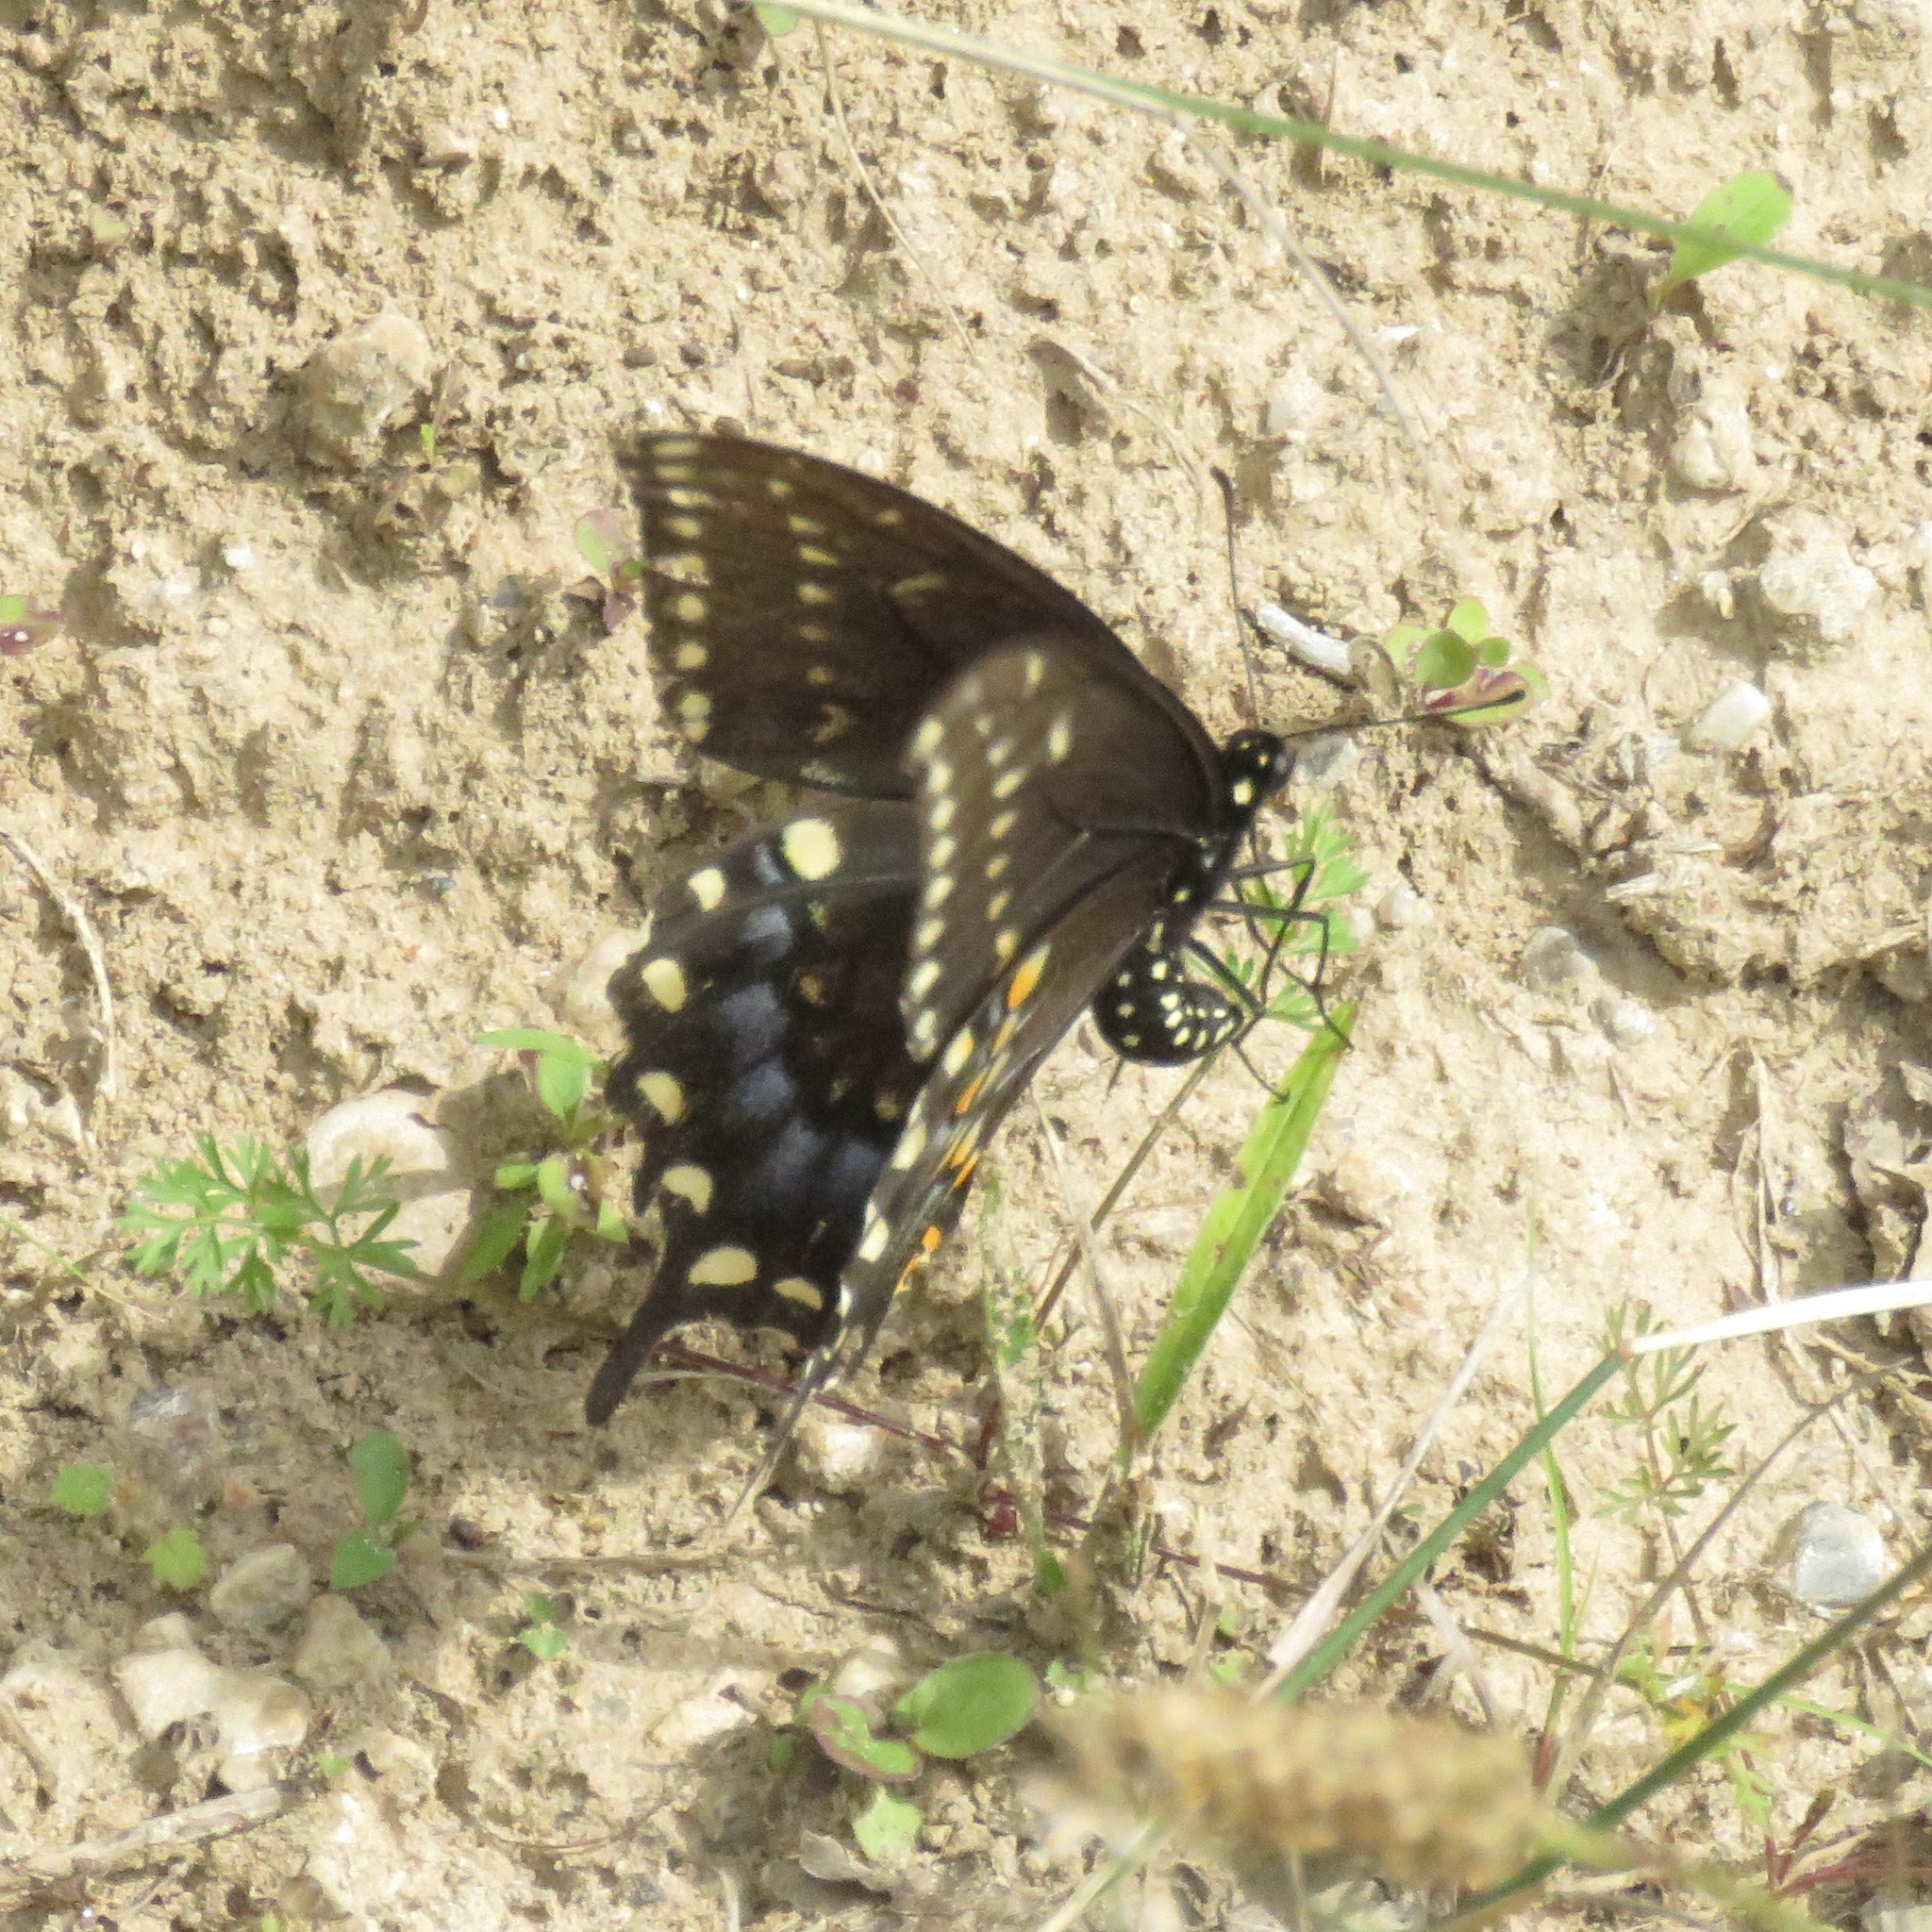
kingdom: Animalia
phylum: Arthropoda
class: Insecta
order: Lepidoptera
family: Papilionidae
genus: Papilio
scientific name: Papilio polyxenes
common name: Black swallowtail
